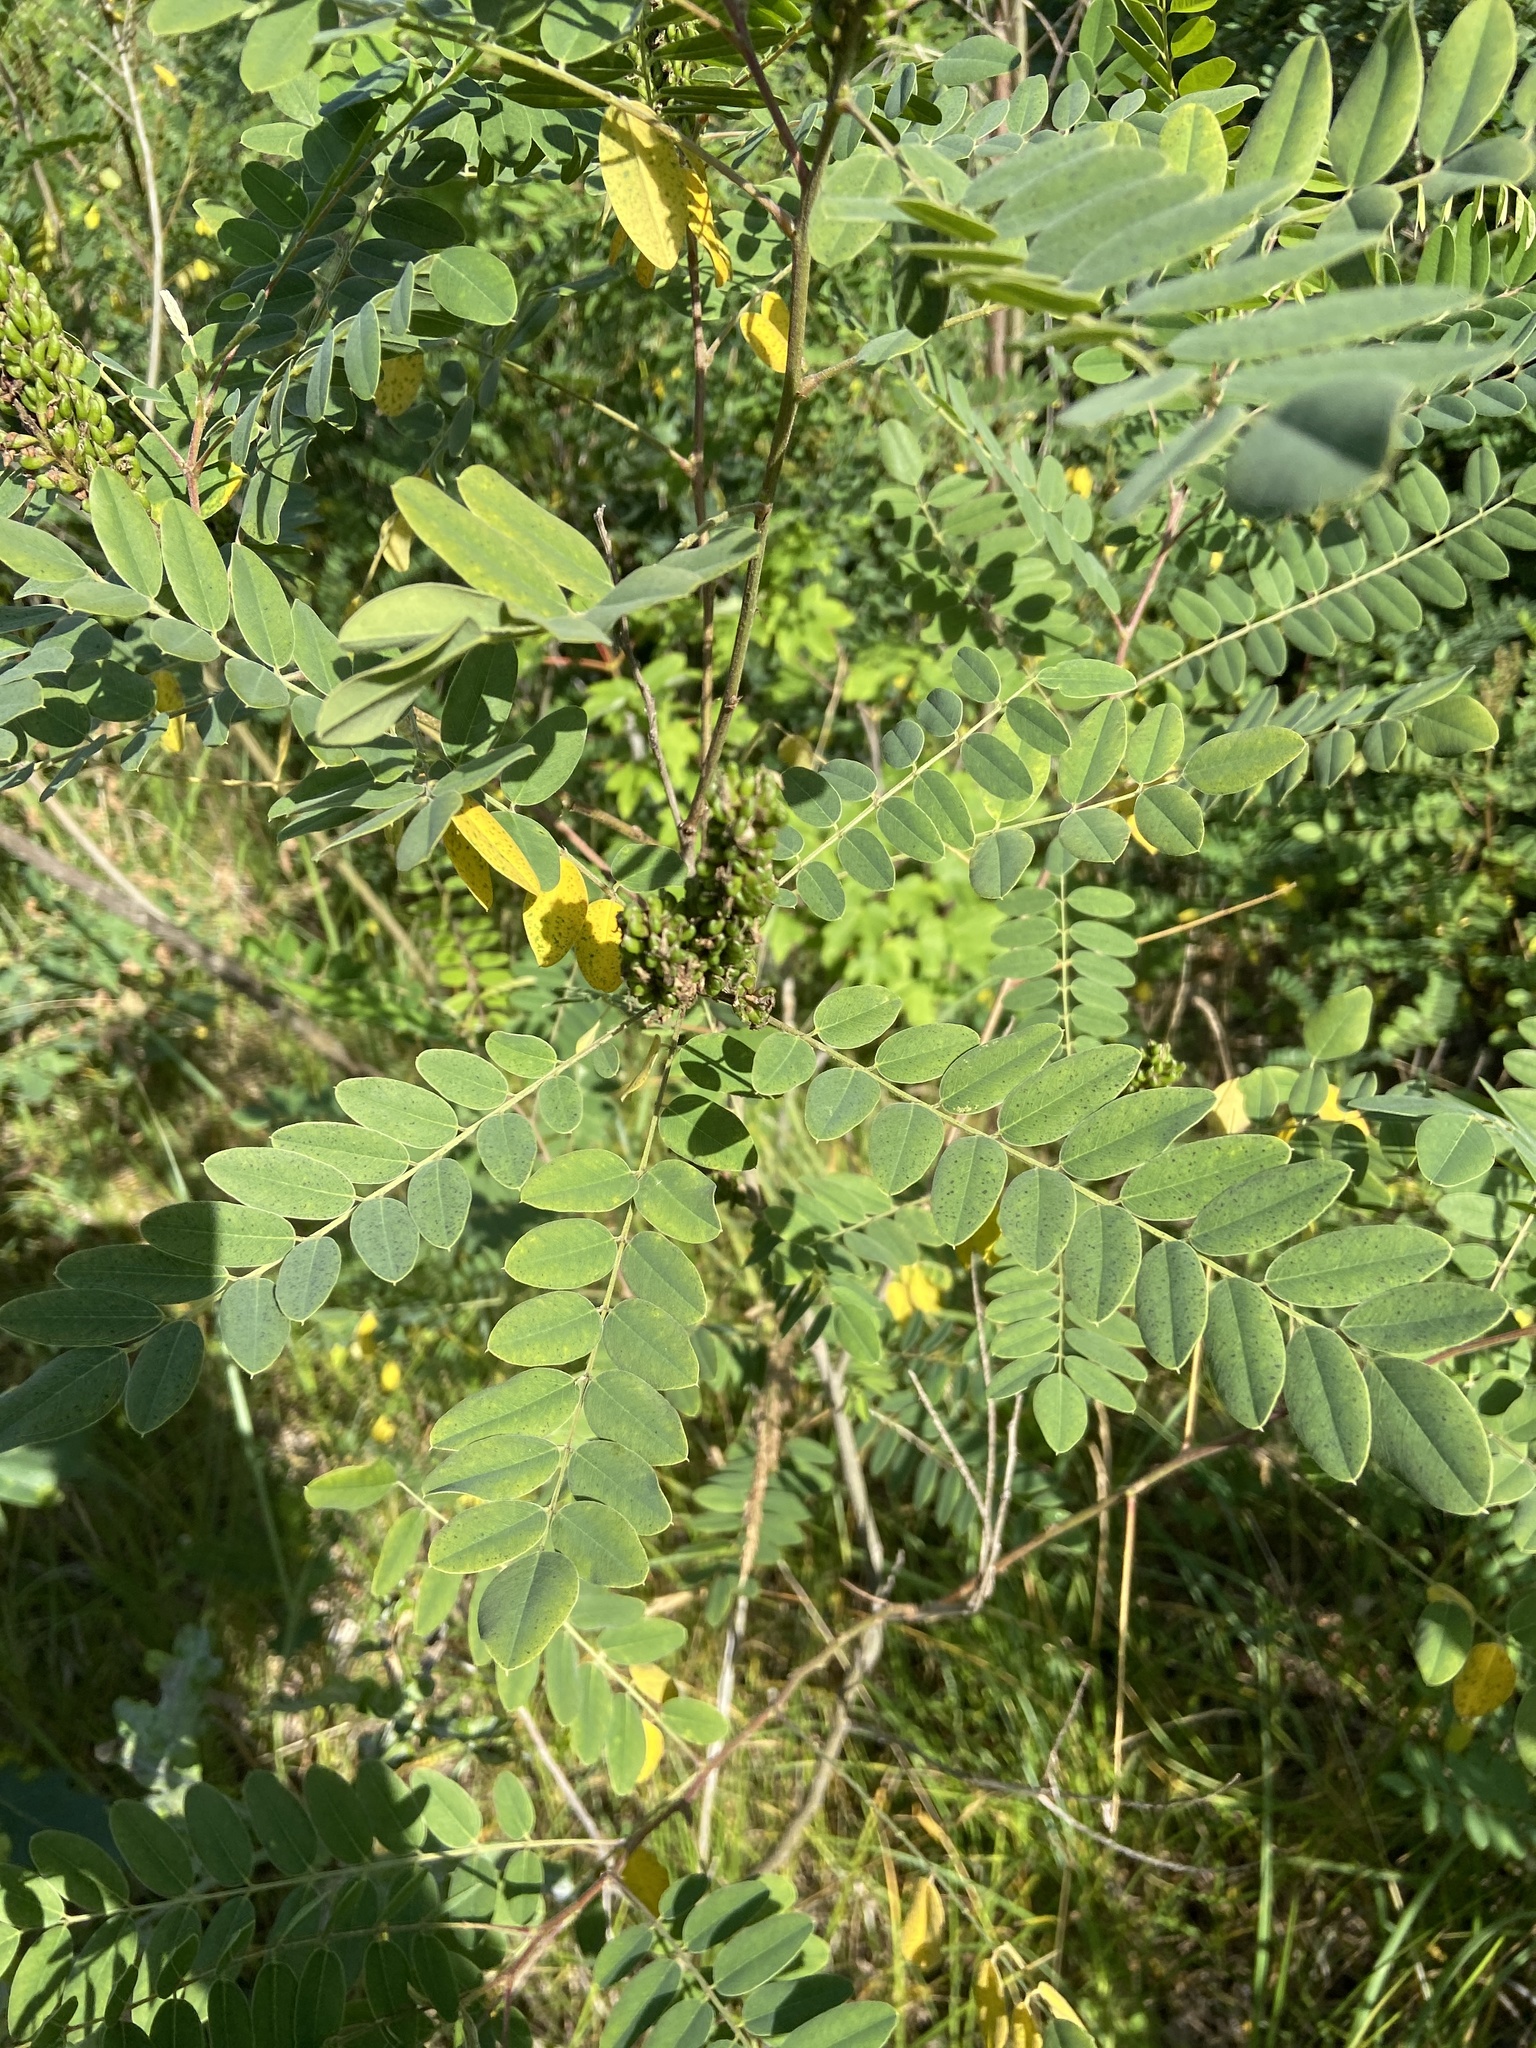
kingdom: Plantae
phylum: Tracheophyta
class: Magnoliopsida
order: Fabales
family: Fabaceae
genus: Amorpha
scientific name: Amorpha fruticosa
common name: False indigo
